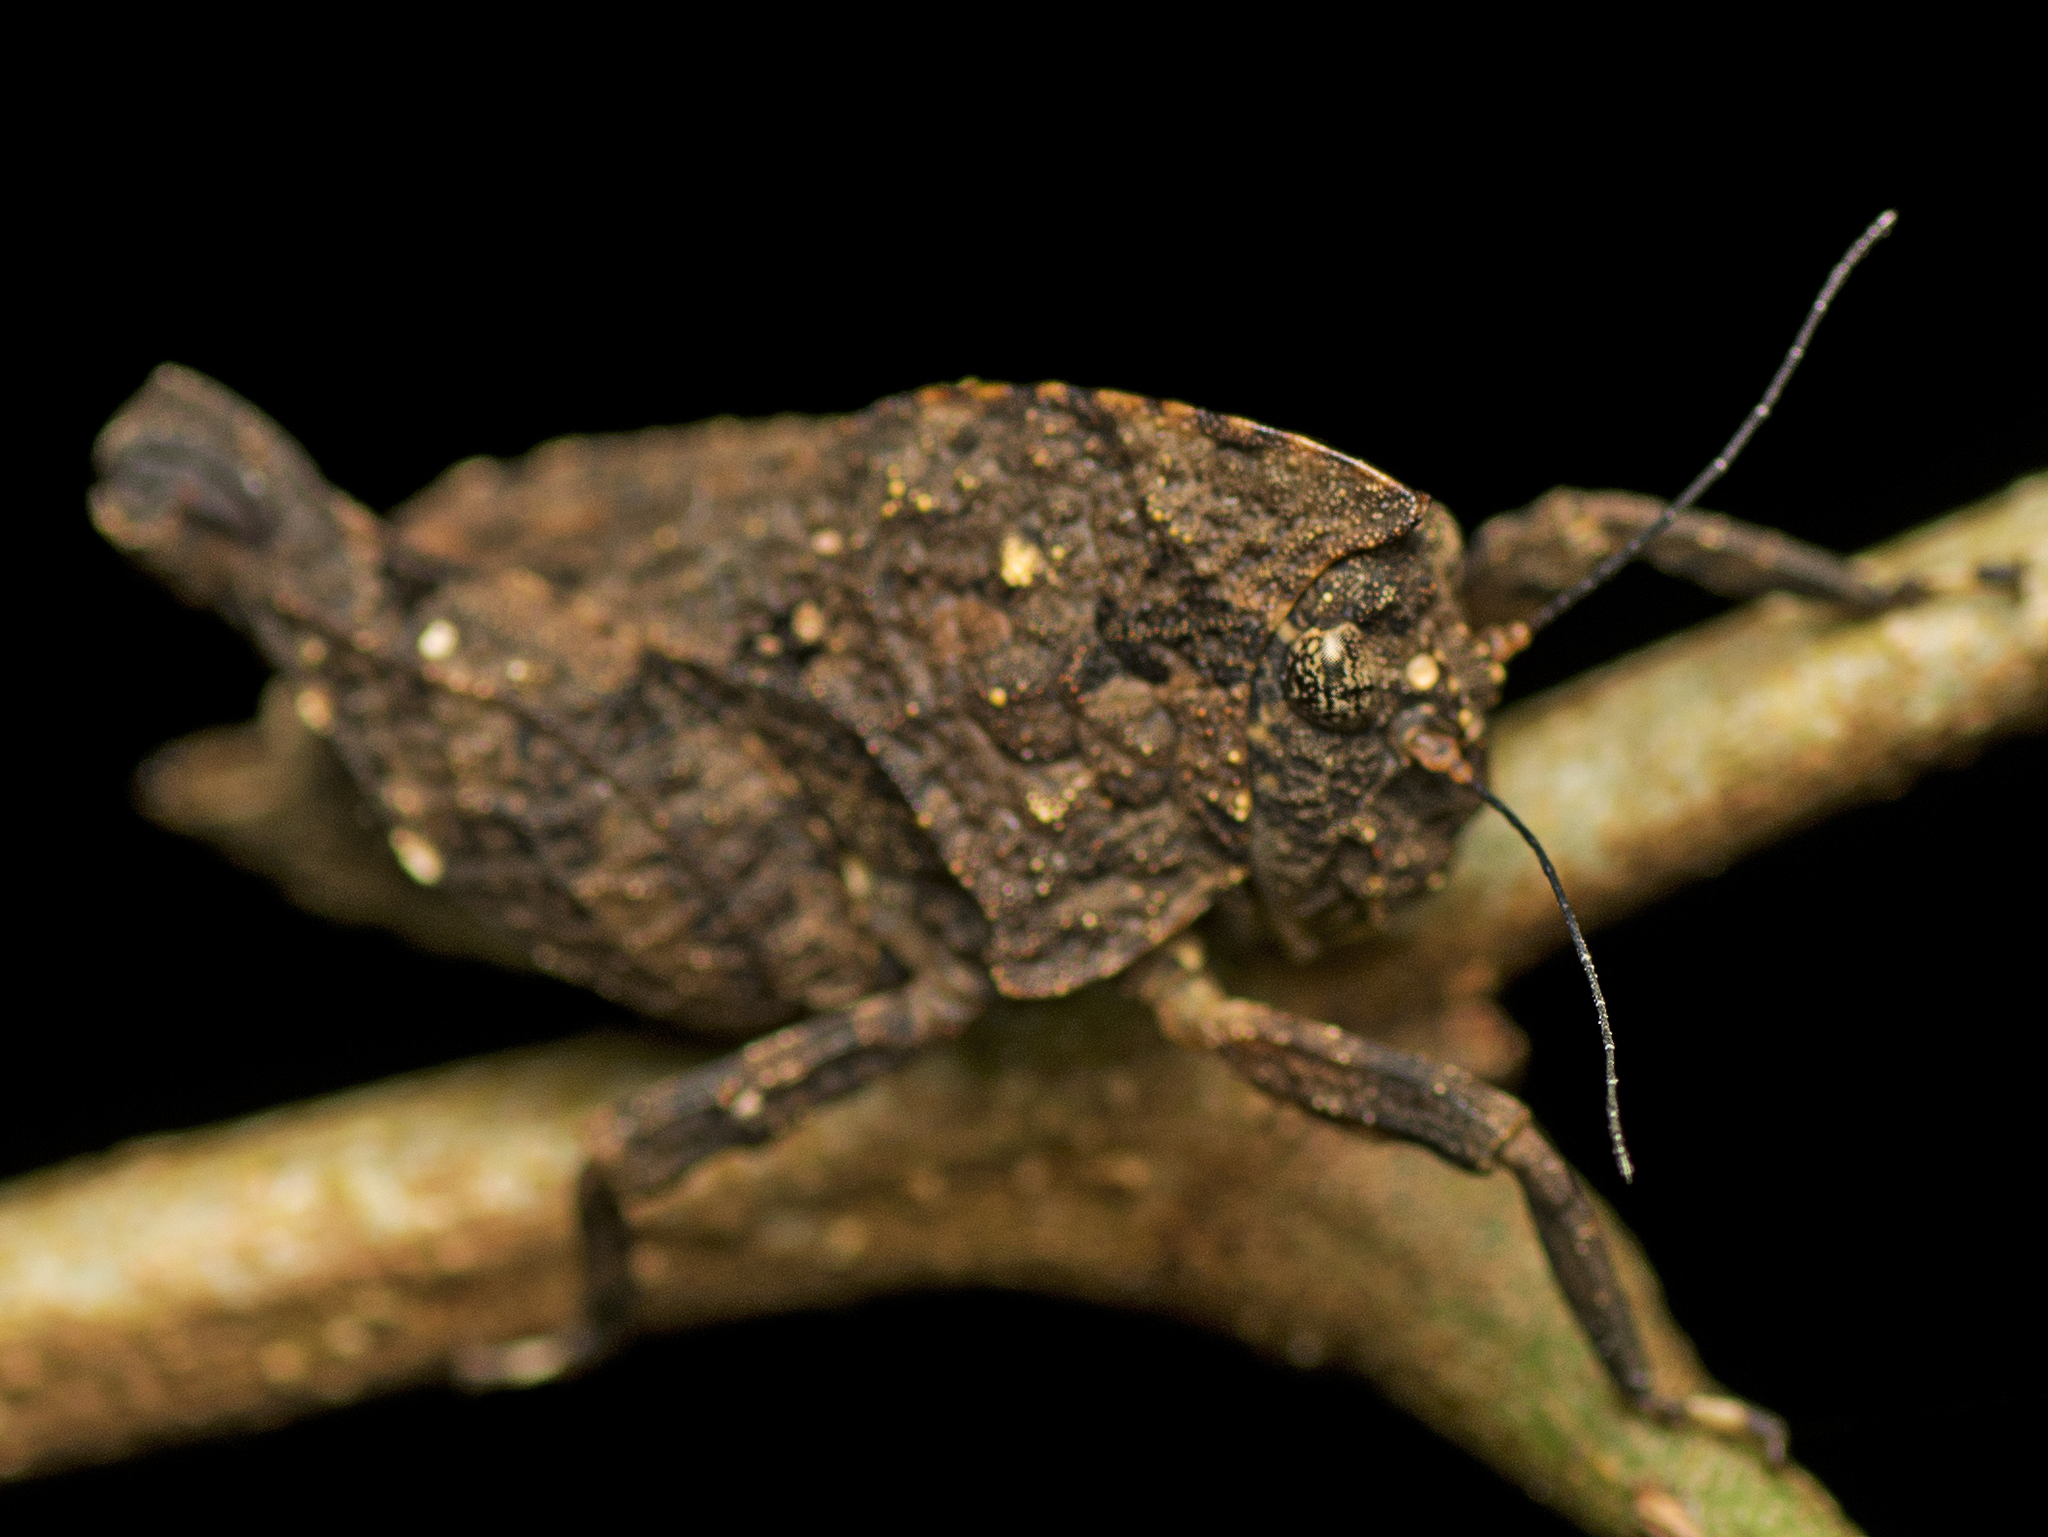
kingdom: Animalia
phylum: Arthropoda
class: Insecta
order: Orthoptera
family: Tetrigidae
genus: Vingselina
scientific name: Vingselina crassa
